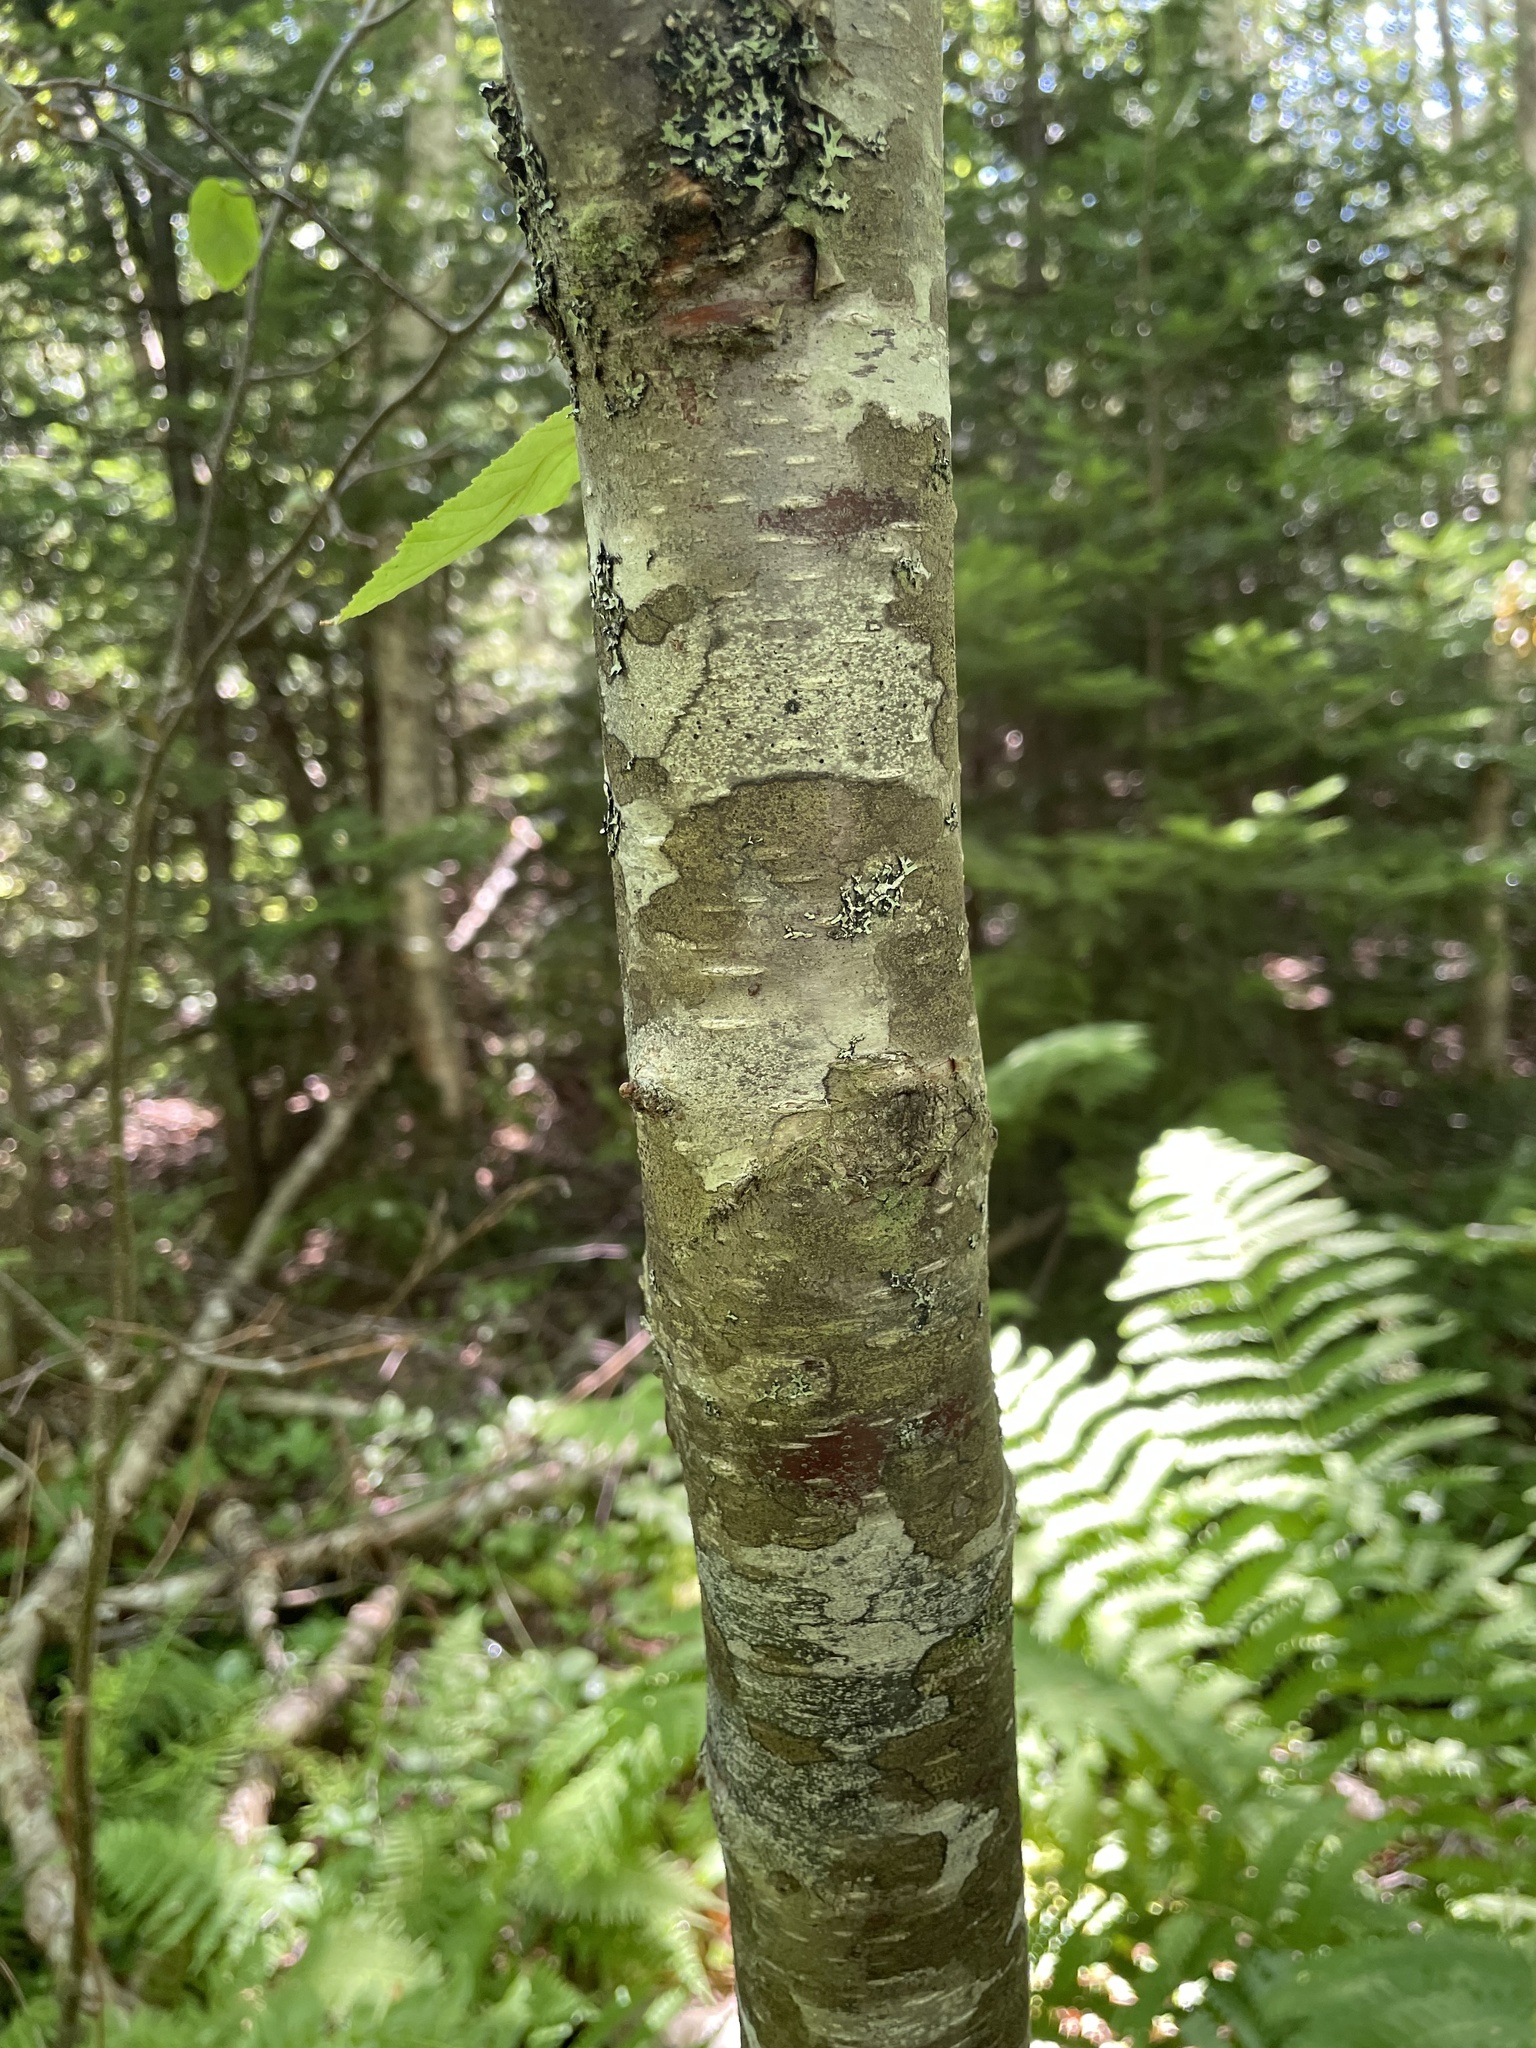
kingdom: Plantae
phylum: Tracheophyta
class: Magnoliopsida
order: Fagales
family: Betulaceae
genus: Betula
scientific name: Betula cordifolia
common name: Mountain white birch
